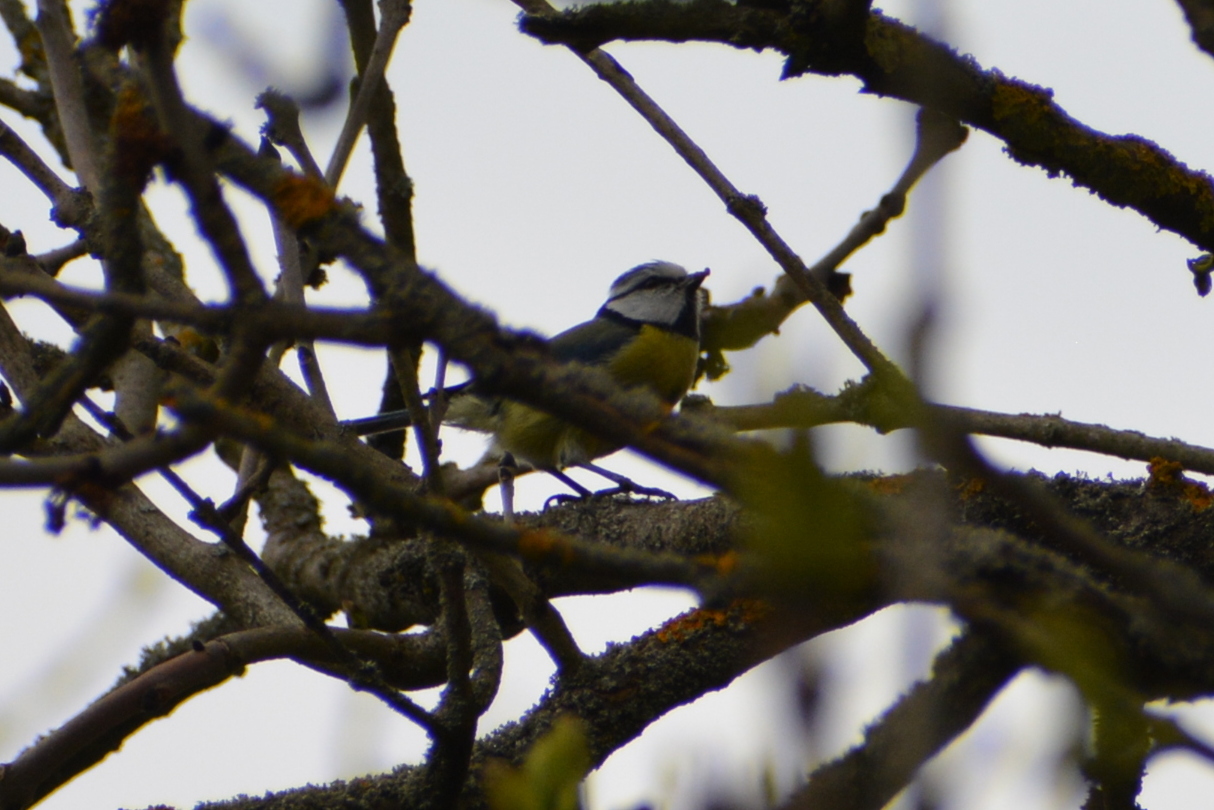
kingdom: Animalia
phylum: Chordata
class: Aves
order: Passeriformes
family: Paridae
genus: Cyanistes
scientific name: Cyanistes caeruleus
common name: Eurasian blue tit
